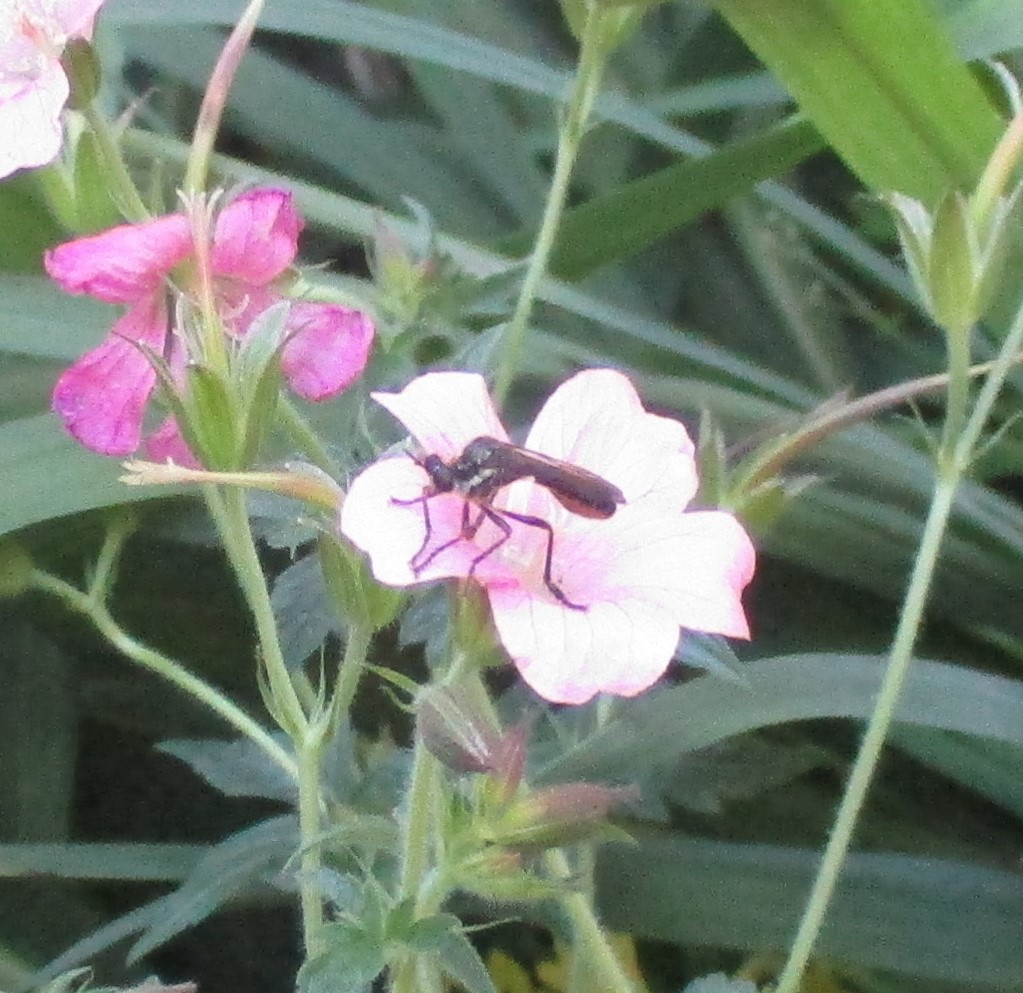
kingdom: Animalia
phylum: Arthropoda
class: Insecta
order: Diptera
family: Asilidae
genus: Dioctria
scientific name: Dioctria hyalipennis
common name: Stripe-legged robberfly
